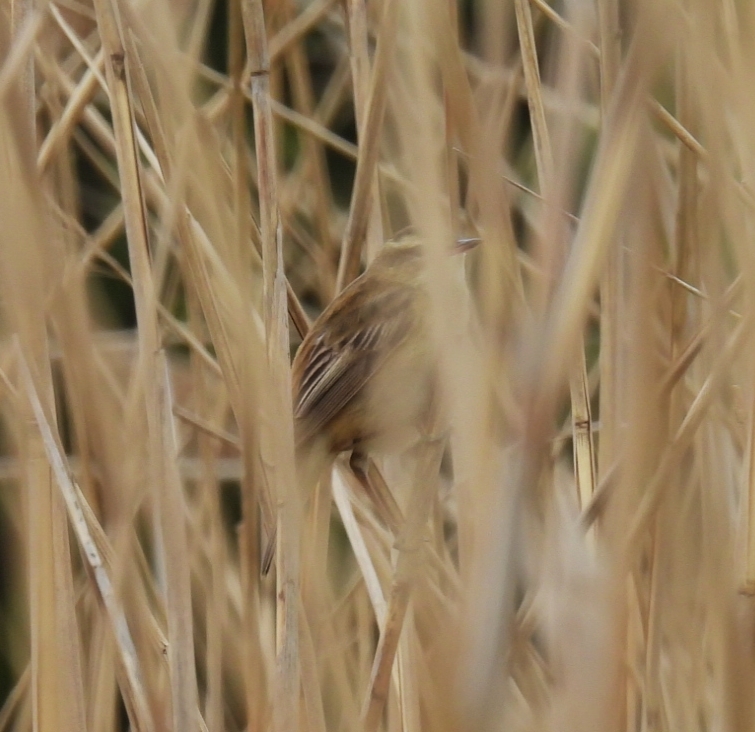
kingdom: Animalia
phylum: Chordata
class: Aves
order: Passeriformes
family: Acrocephalidae
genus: Acrocephalus
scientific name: Acrocephalus schoenobaenus
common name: Sedge warbler
